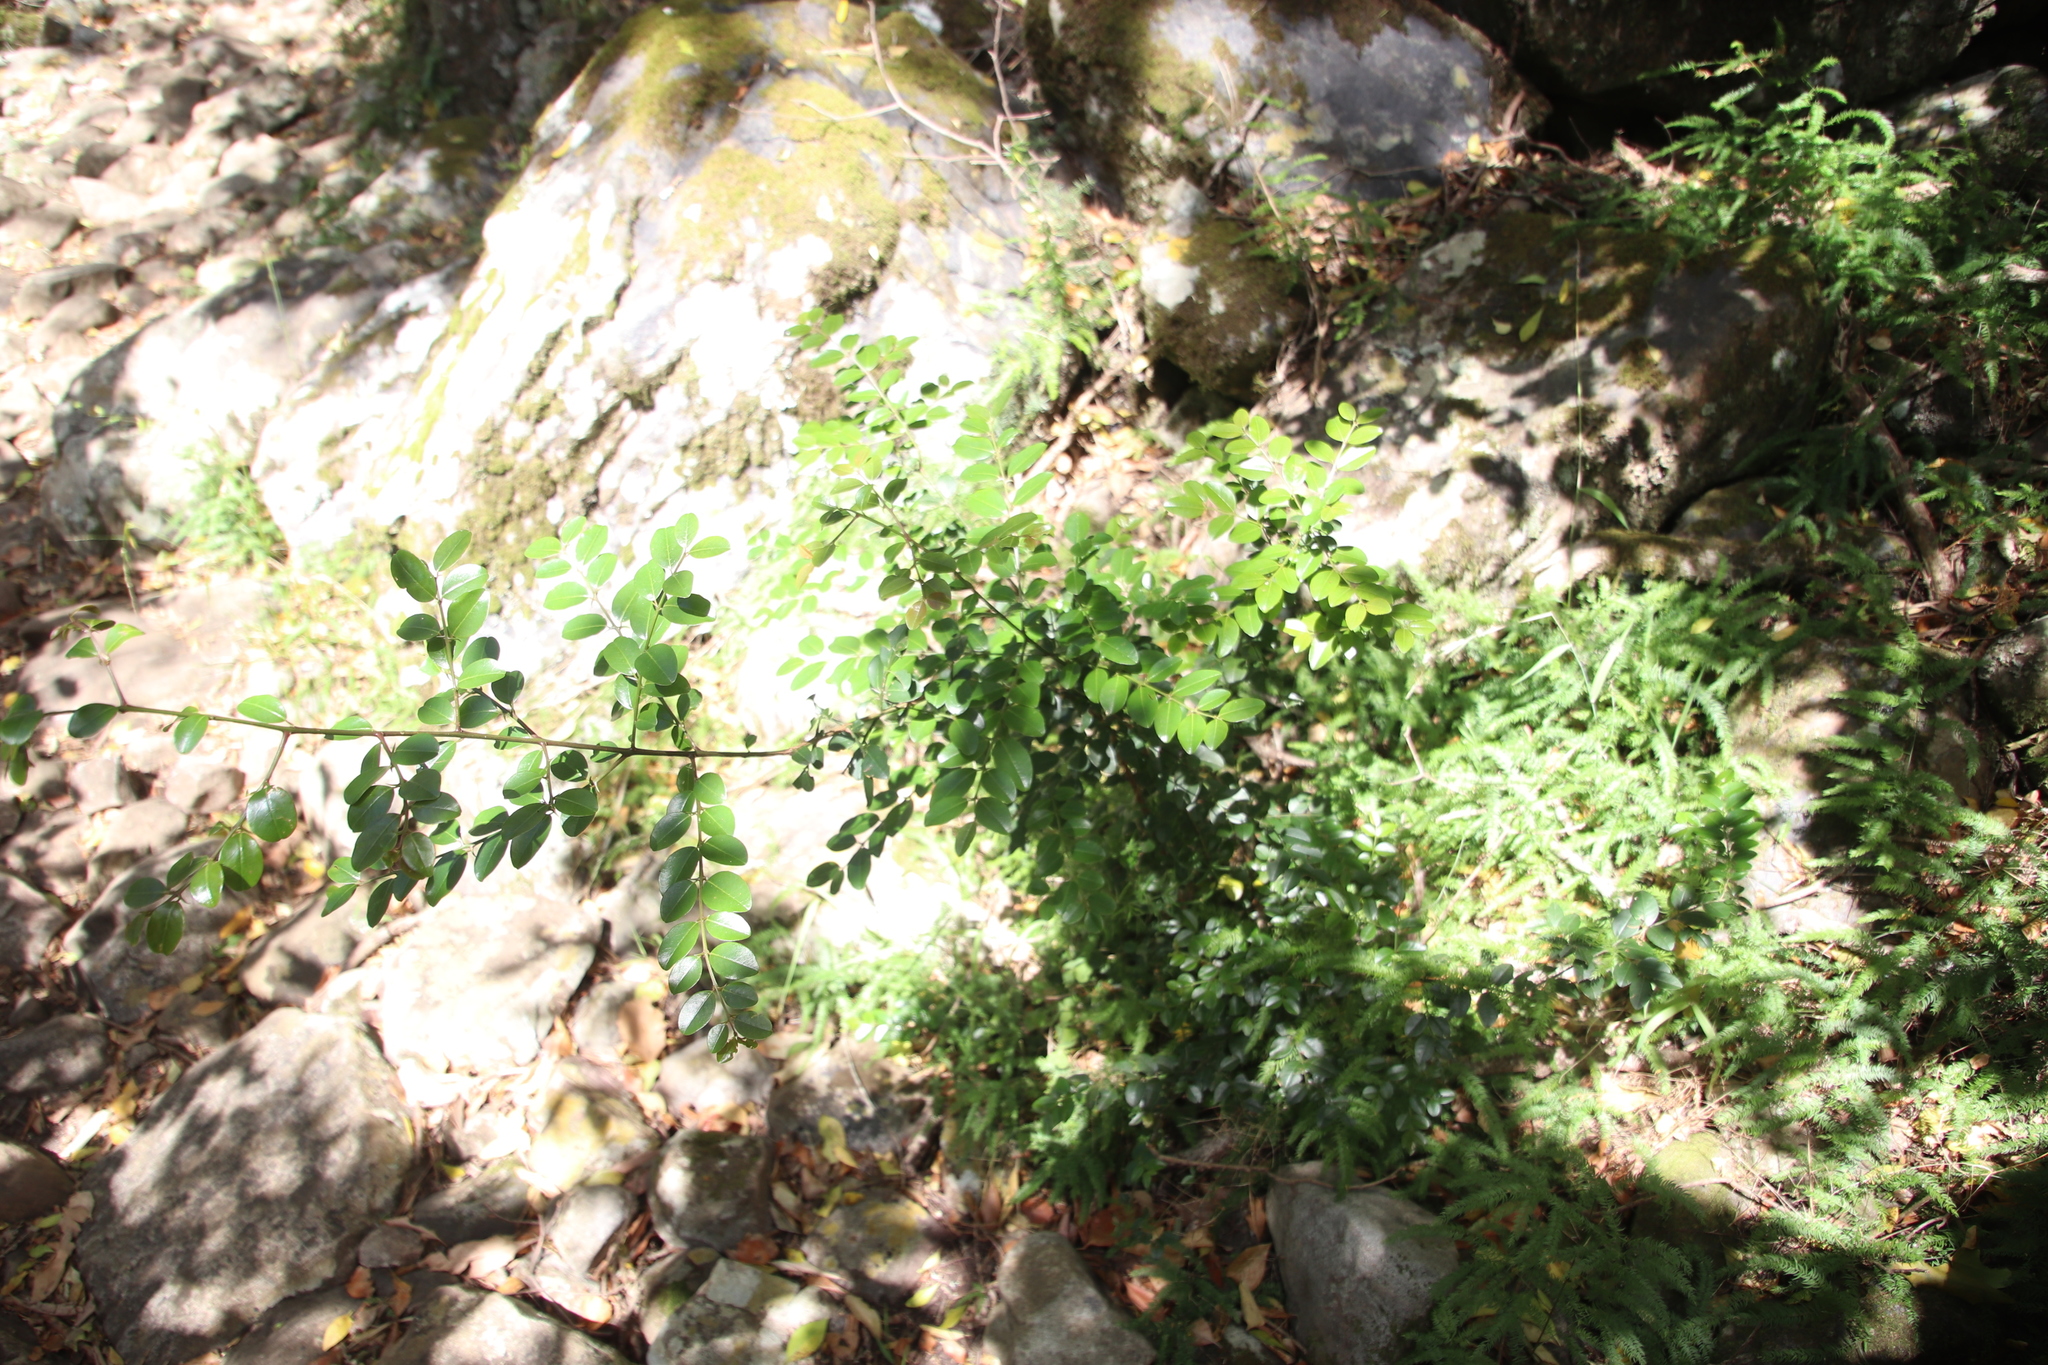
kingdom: Plantae
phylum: Tracheophyta
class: Magnoliopsida
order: Rosales
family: Rhamnaceae
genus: Scutia
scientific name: Scutia myrtina
